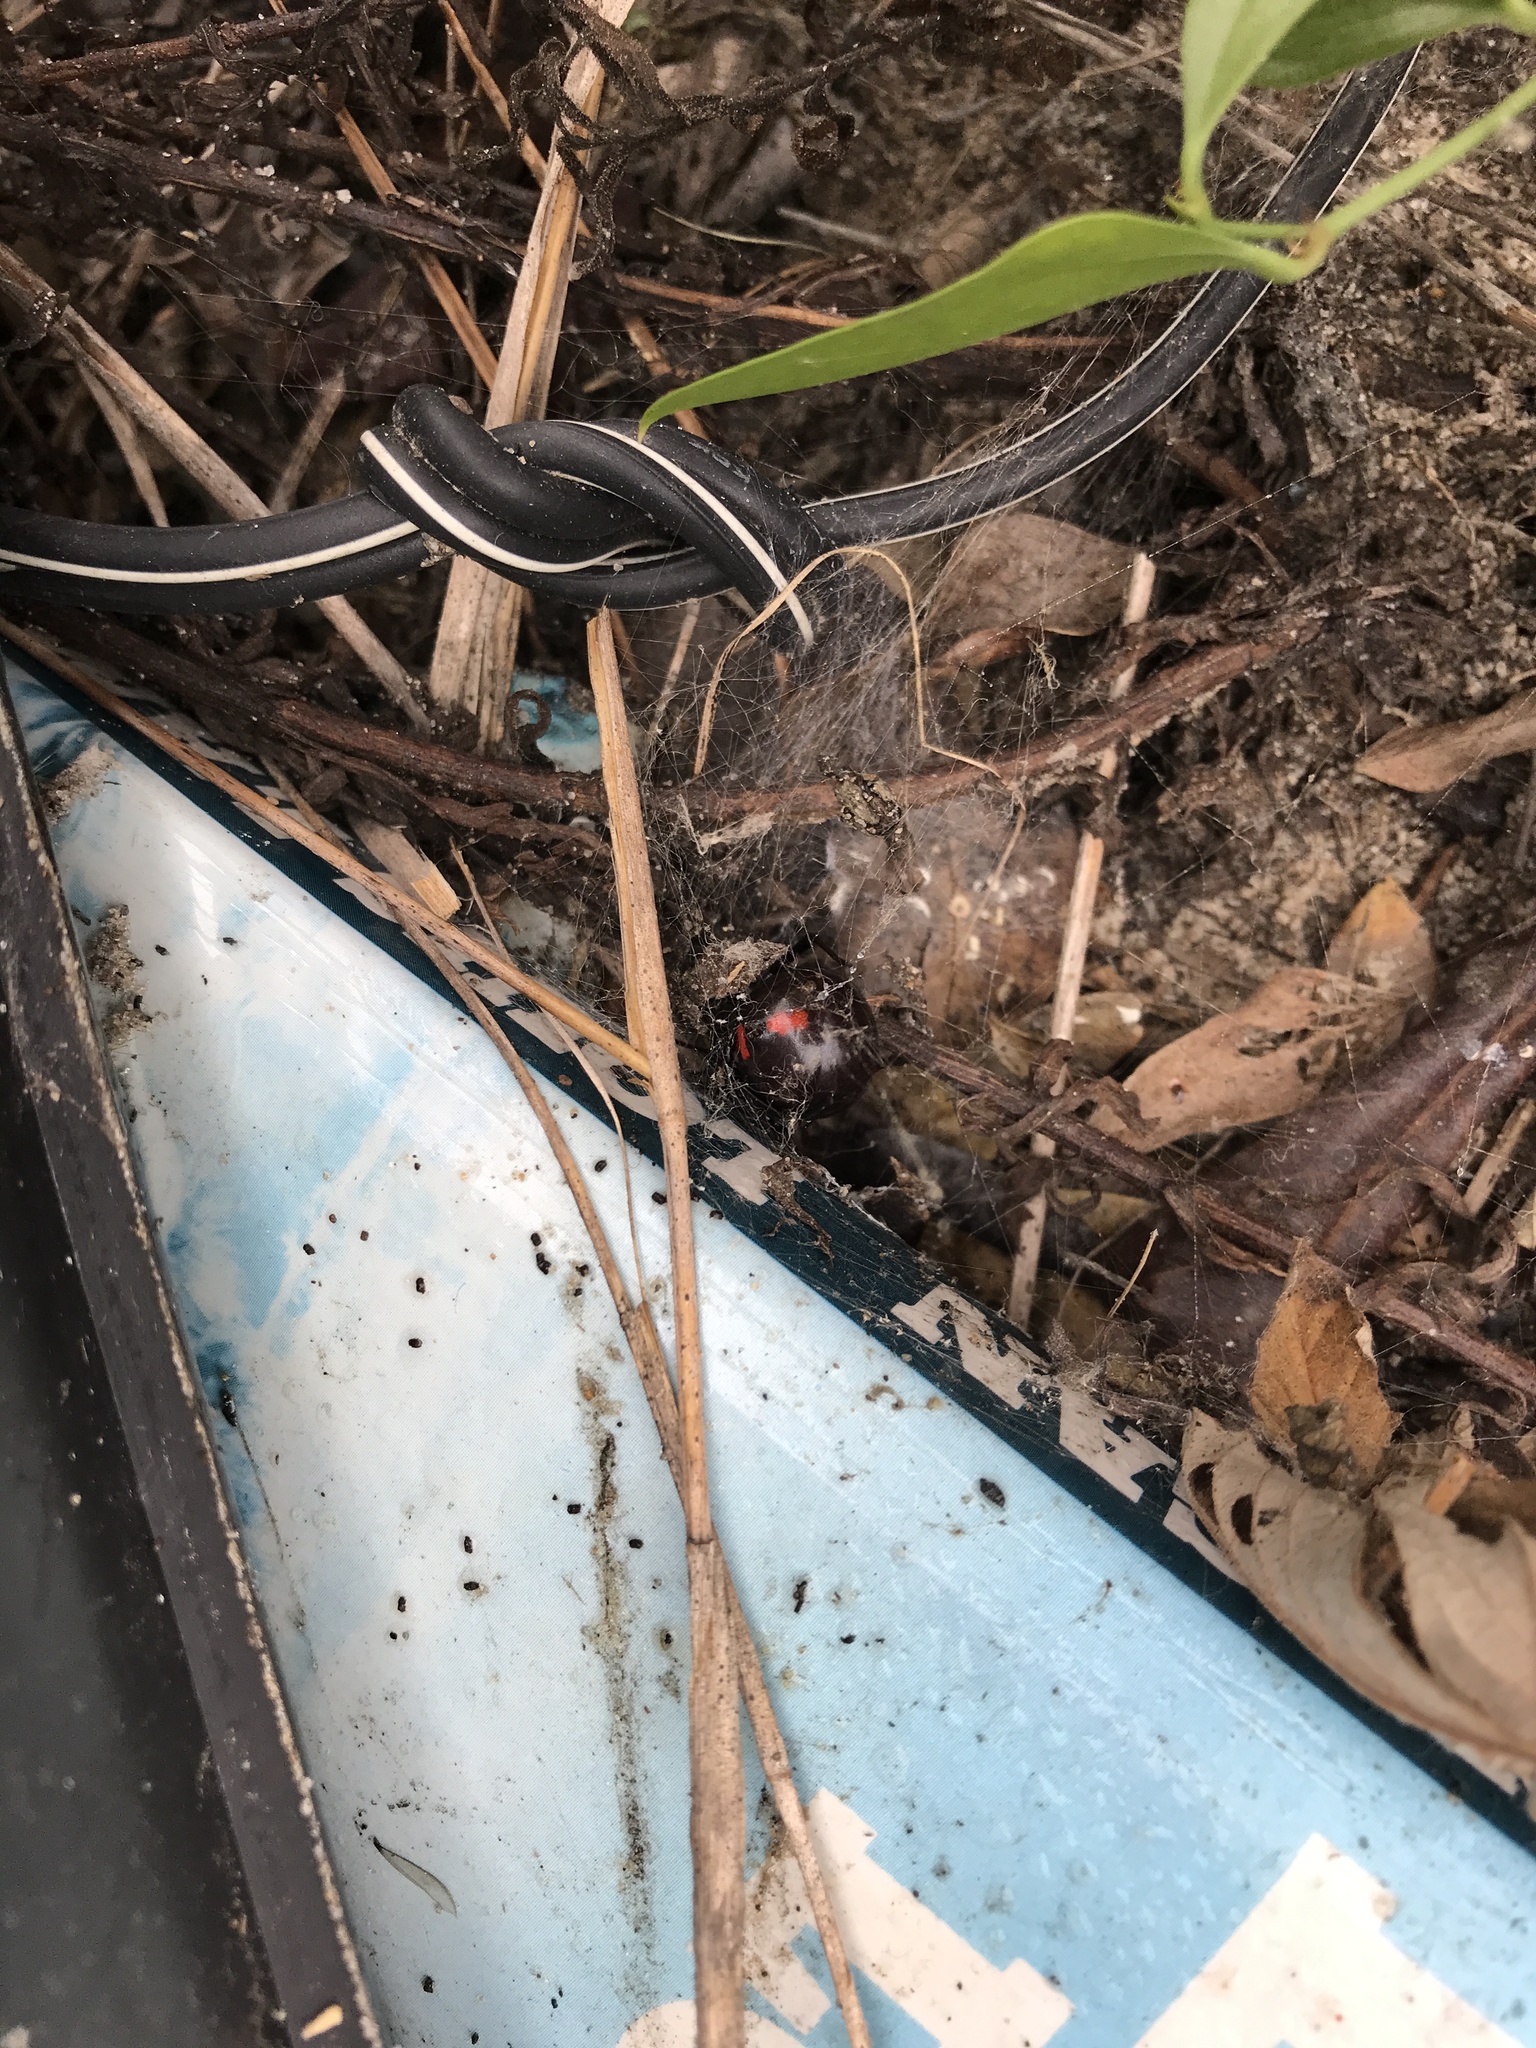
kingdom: Animalia
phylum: Arthropoda
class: Arachnida
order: Araneae
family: Theridiidae
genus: Latrodectus
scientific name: Latrodectus mactans
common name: Cobweb spiders
